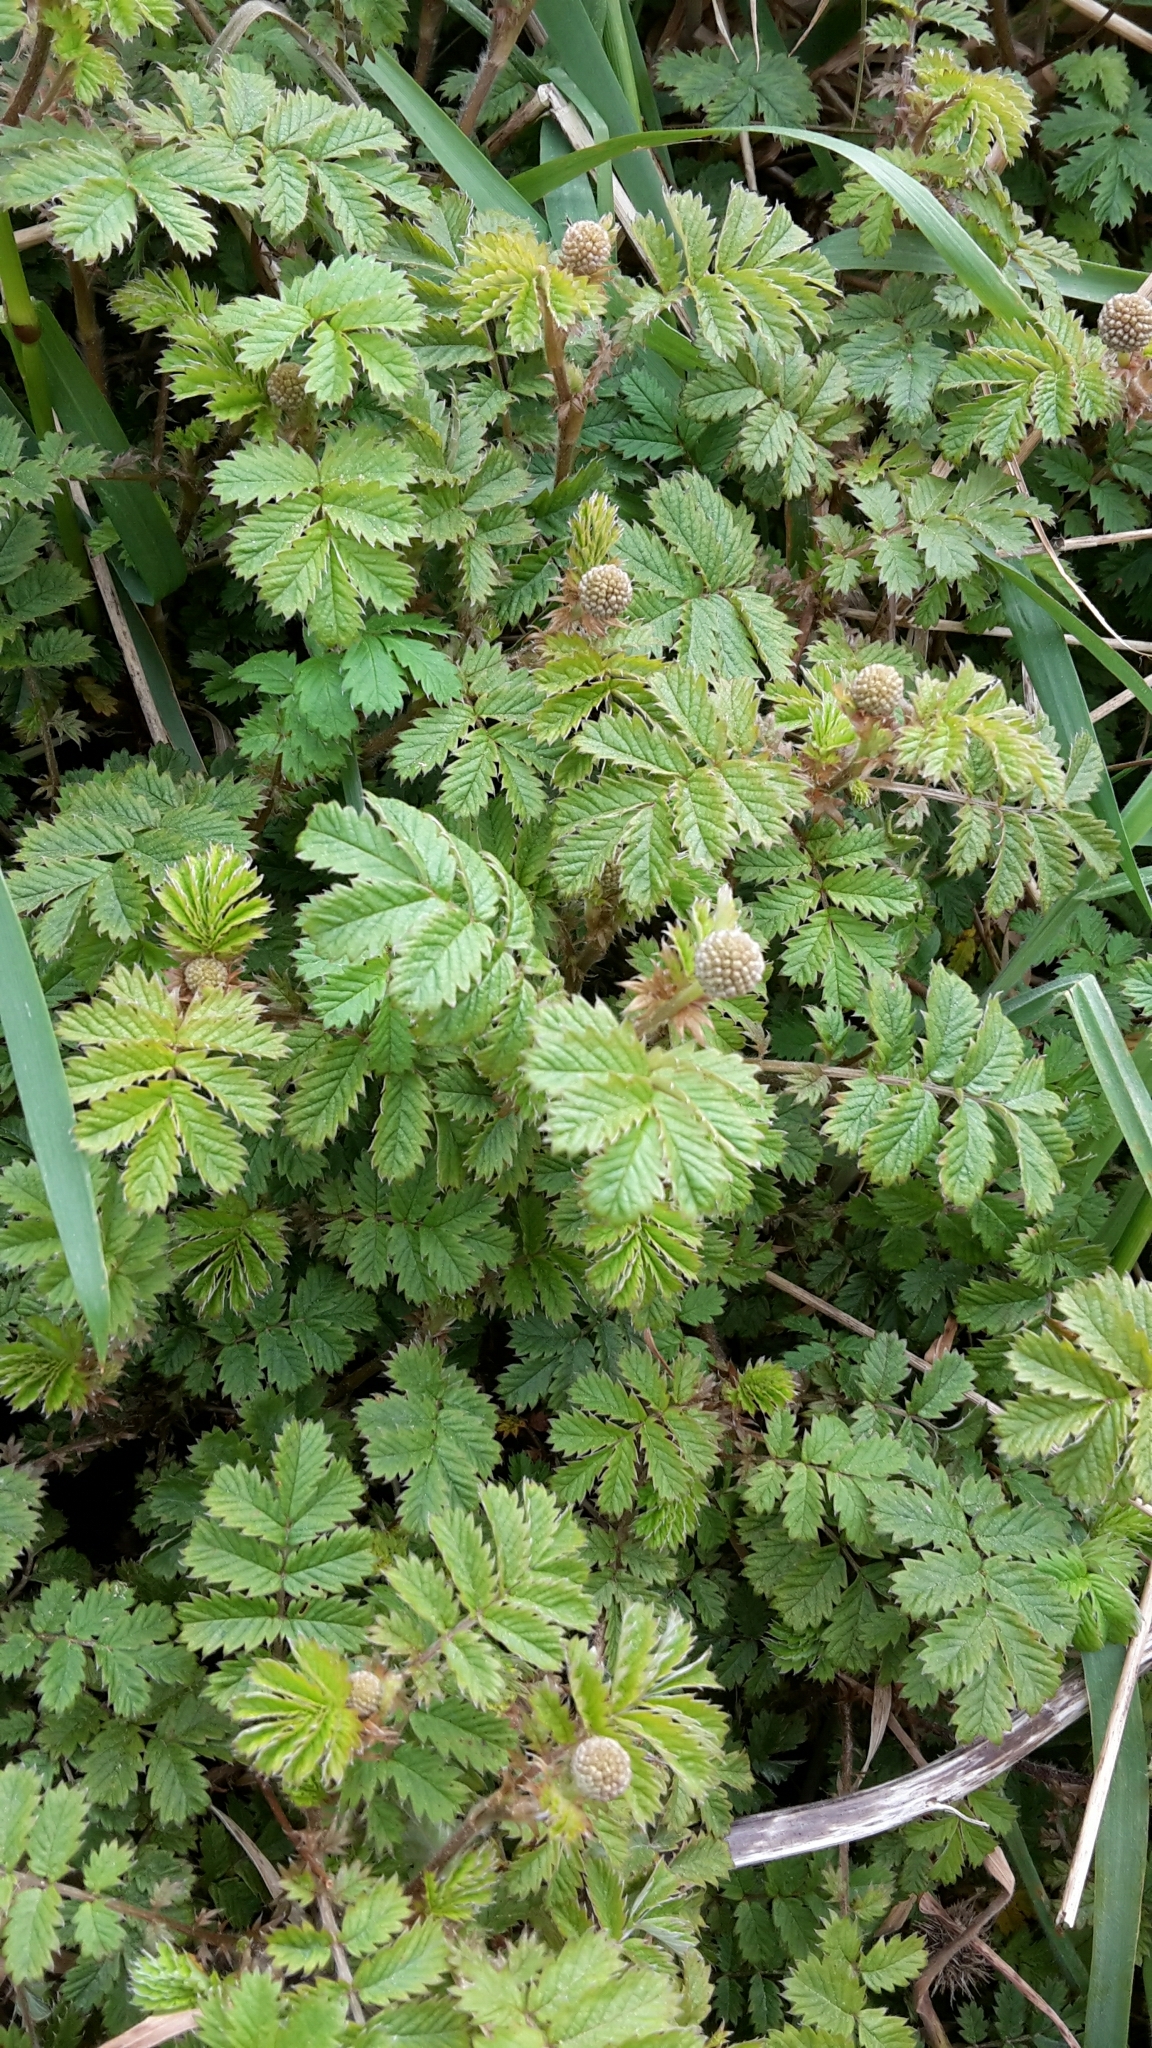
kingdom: Plantae
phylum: Tracheophyta
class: Magnoliopsida
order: Rosales
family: Rosaceae
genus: Acaena
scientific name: Acaena anserinifolia
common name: Bronze pirri-pirri-bur
